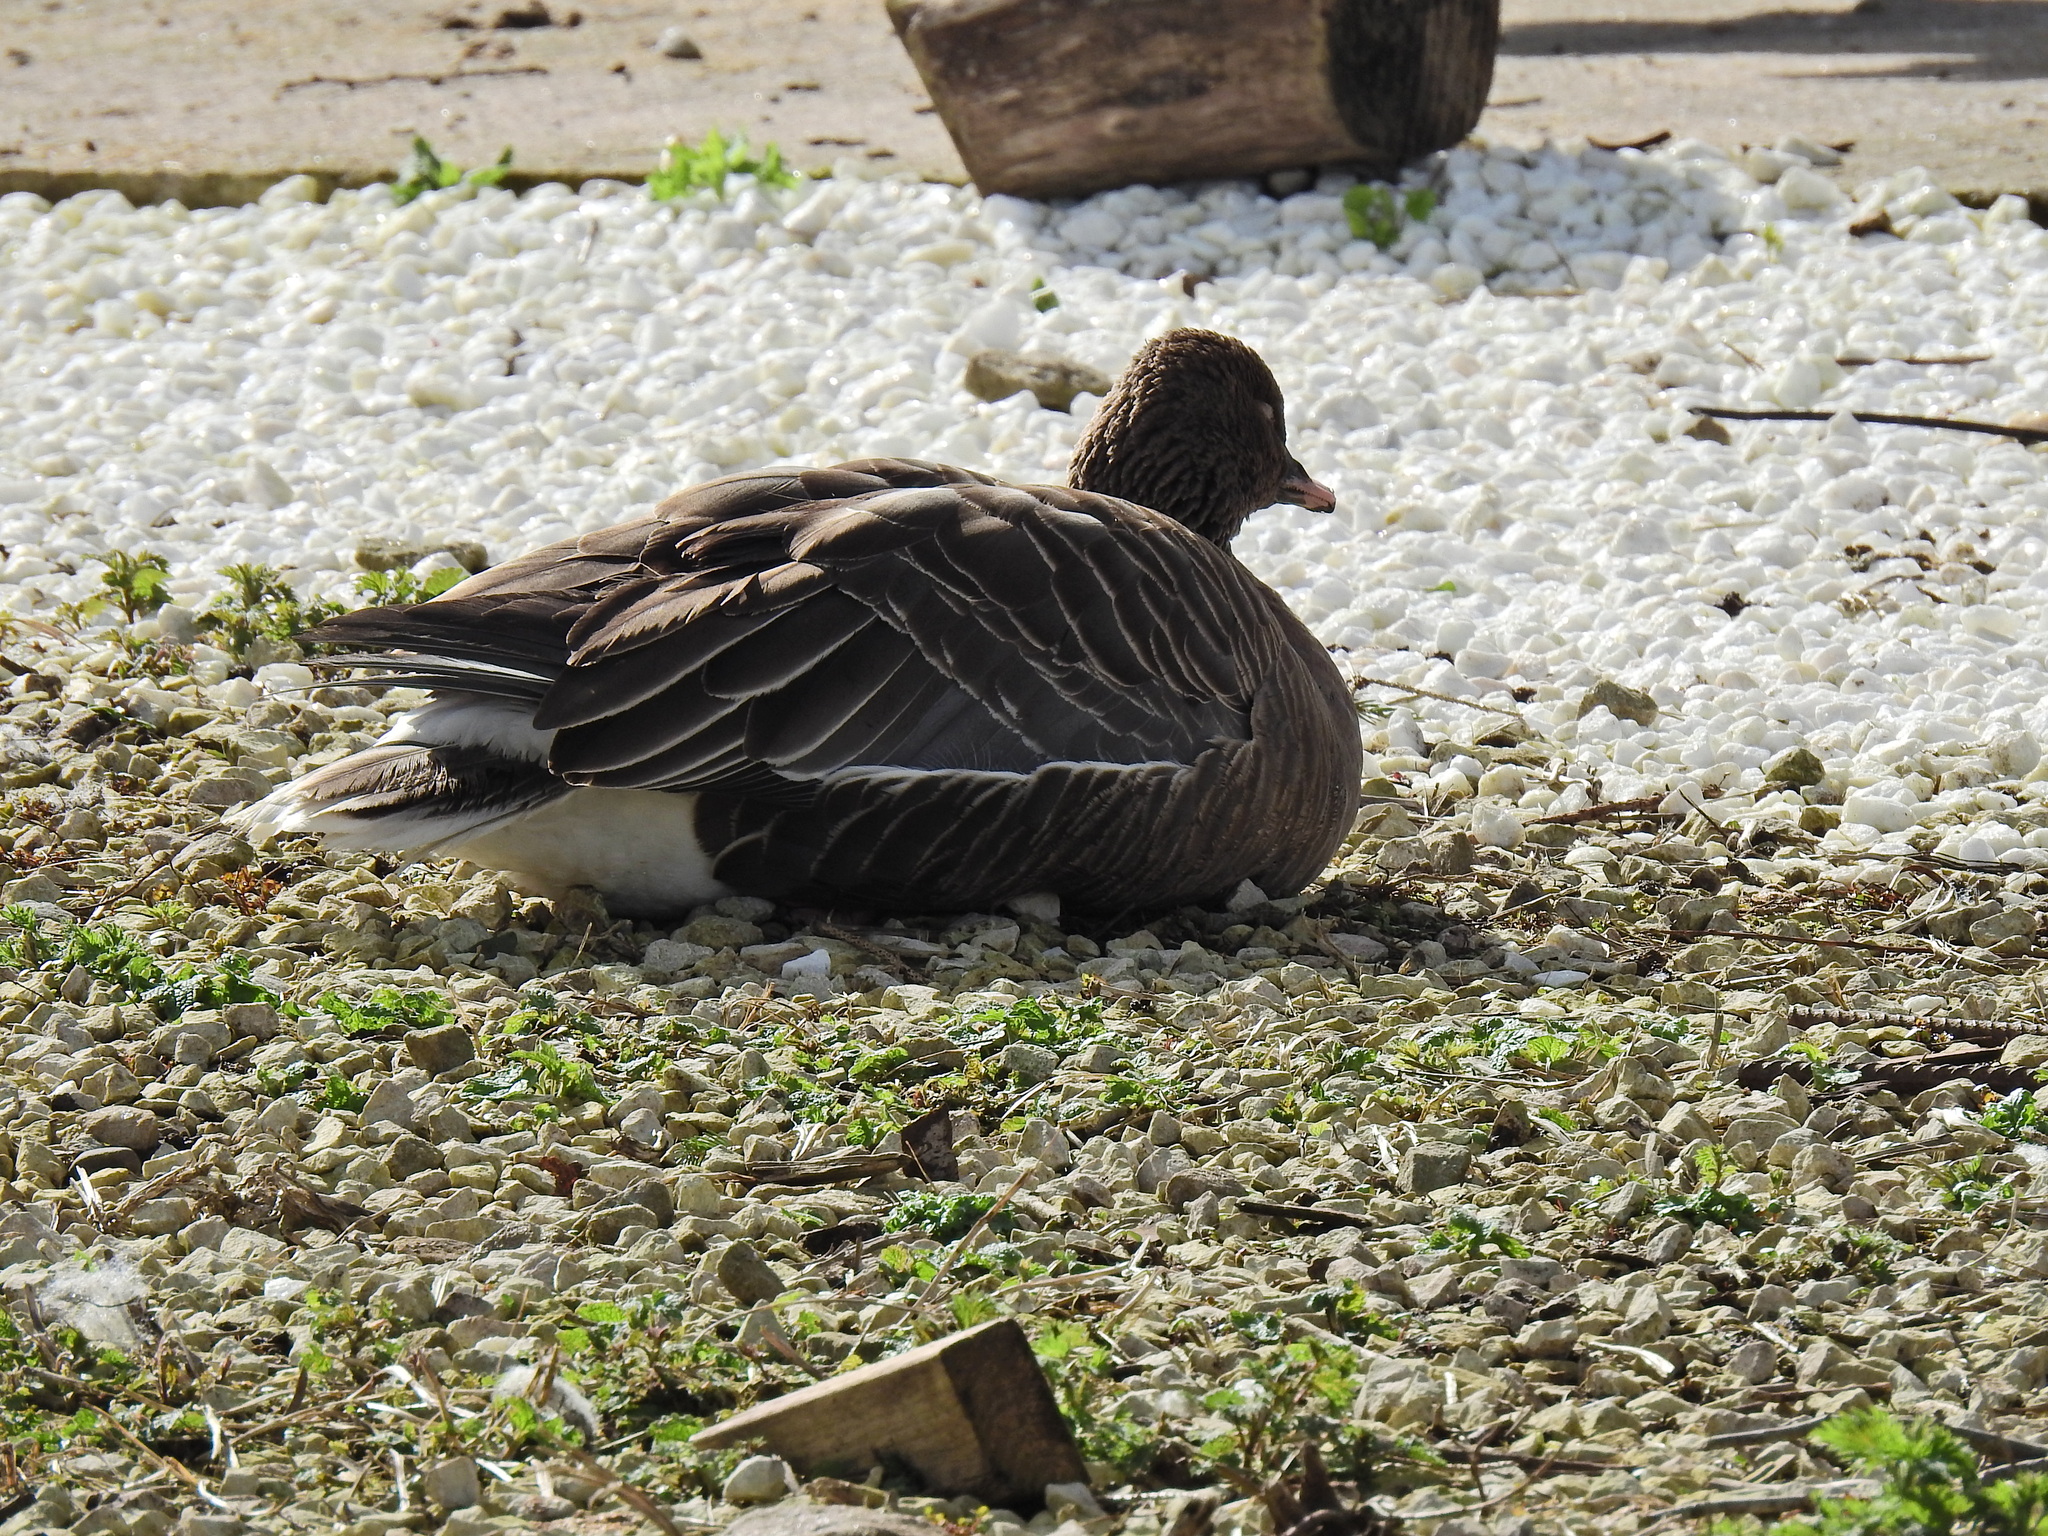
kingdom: Animalia
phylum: Chordata
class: Aves
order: Anseriformes
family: Anatidae
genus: Anser
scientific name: Anser brachyrhynchus
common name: Pink-footed goose
